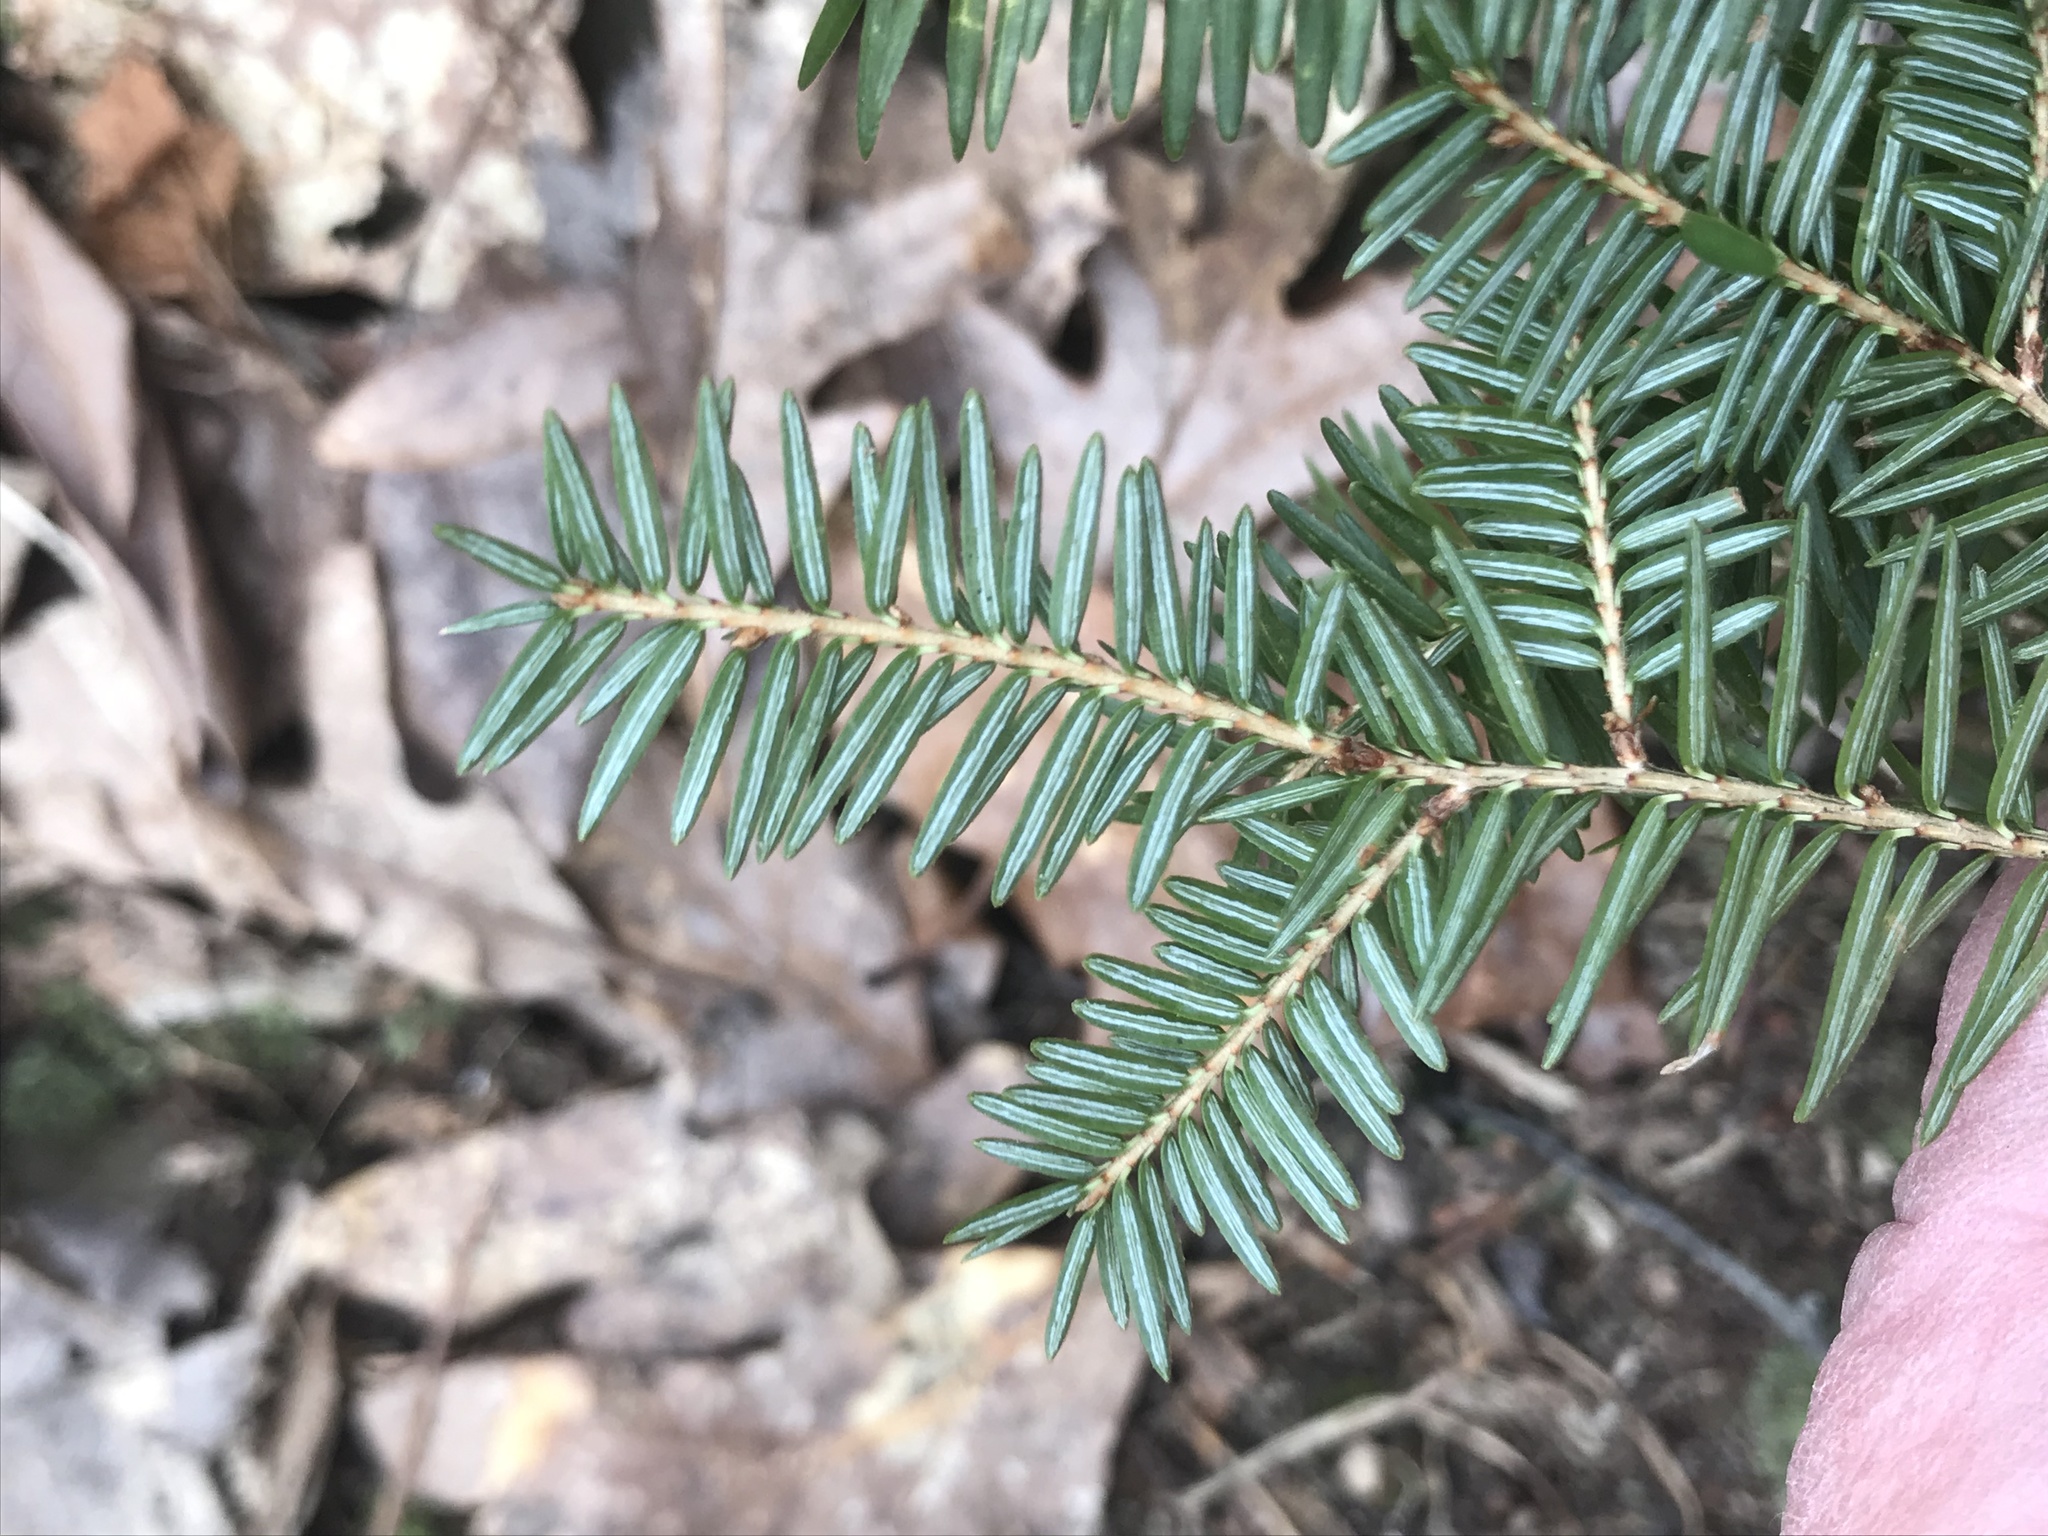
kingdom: Plantae
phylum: Tracheophyta
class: Pinopsida
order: Pinales
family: Pinaceae
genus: Tsuga
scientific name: Tsuga canadensis
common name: Eastern hemlock
